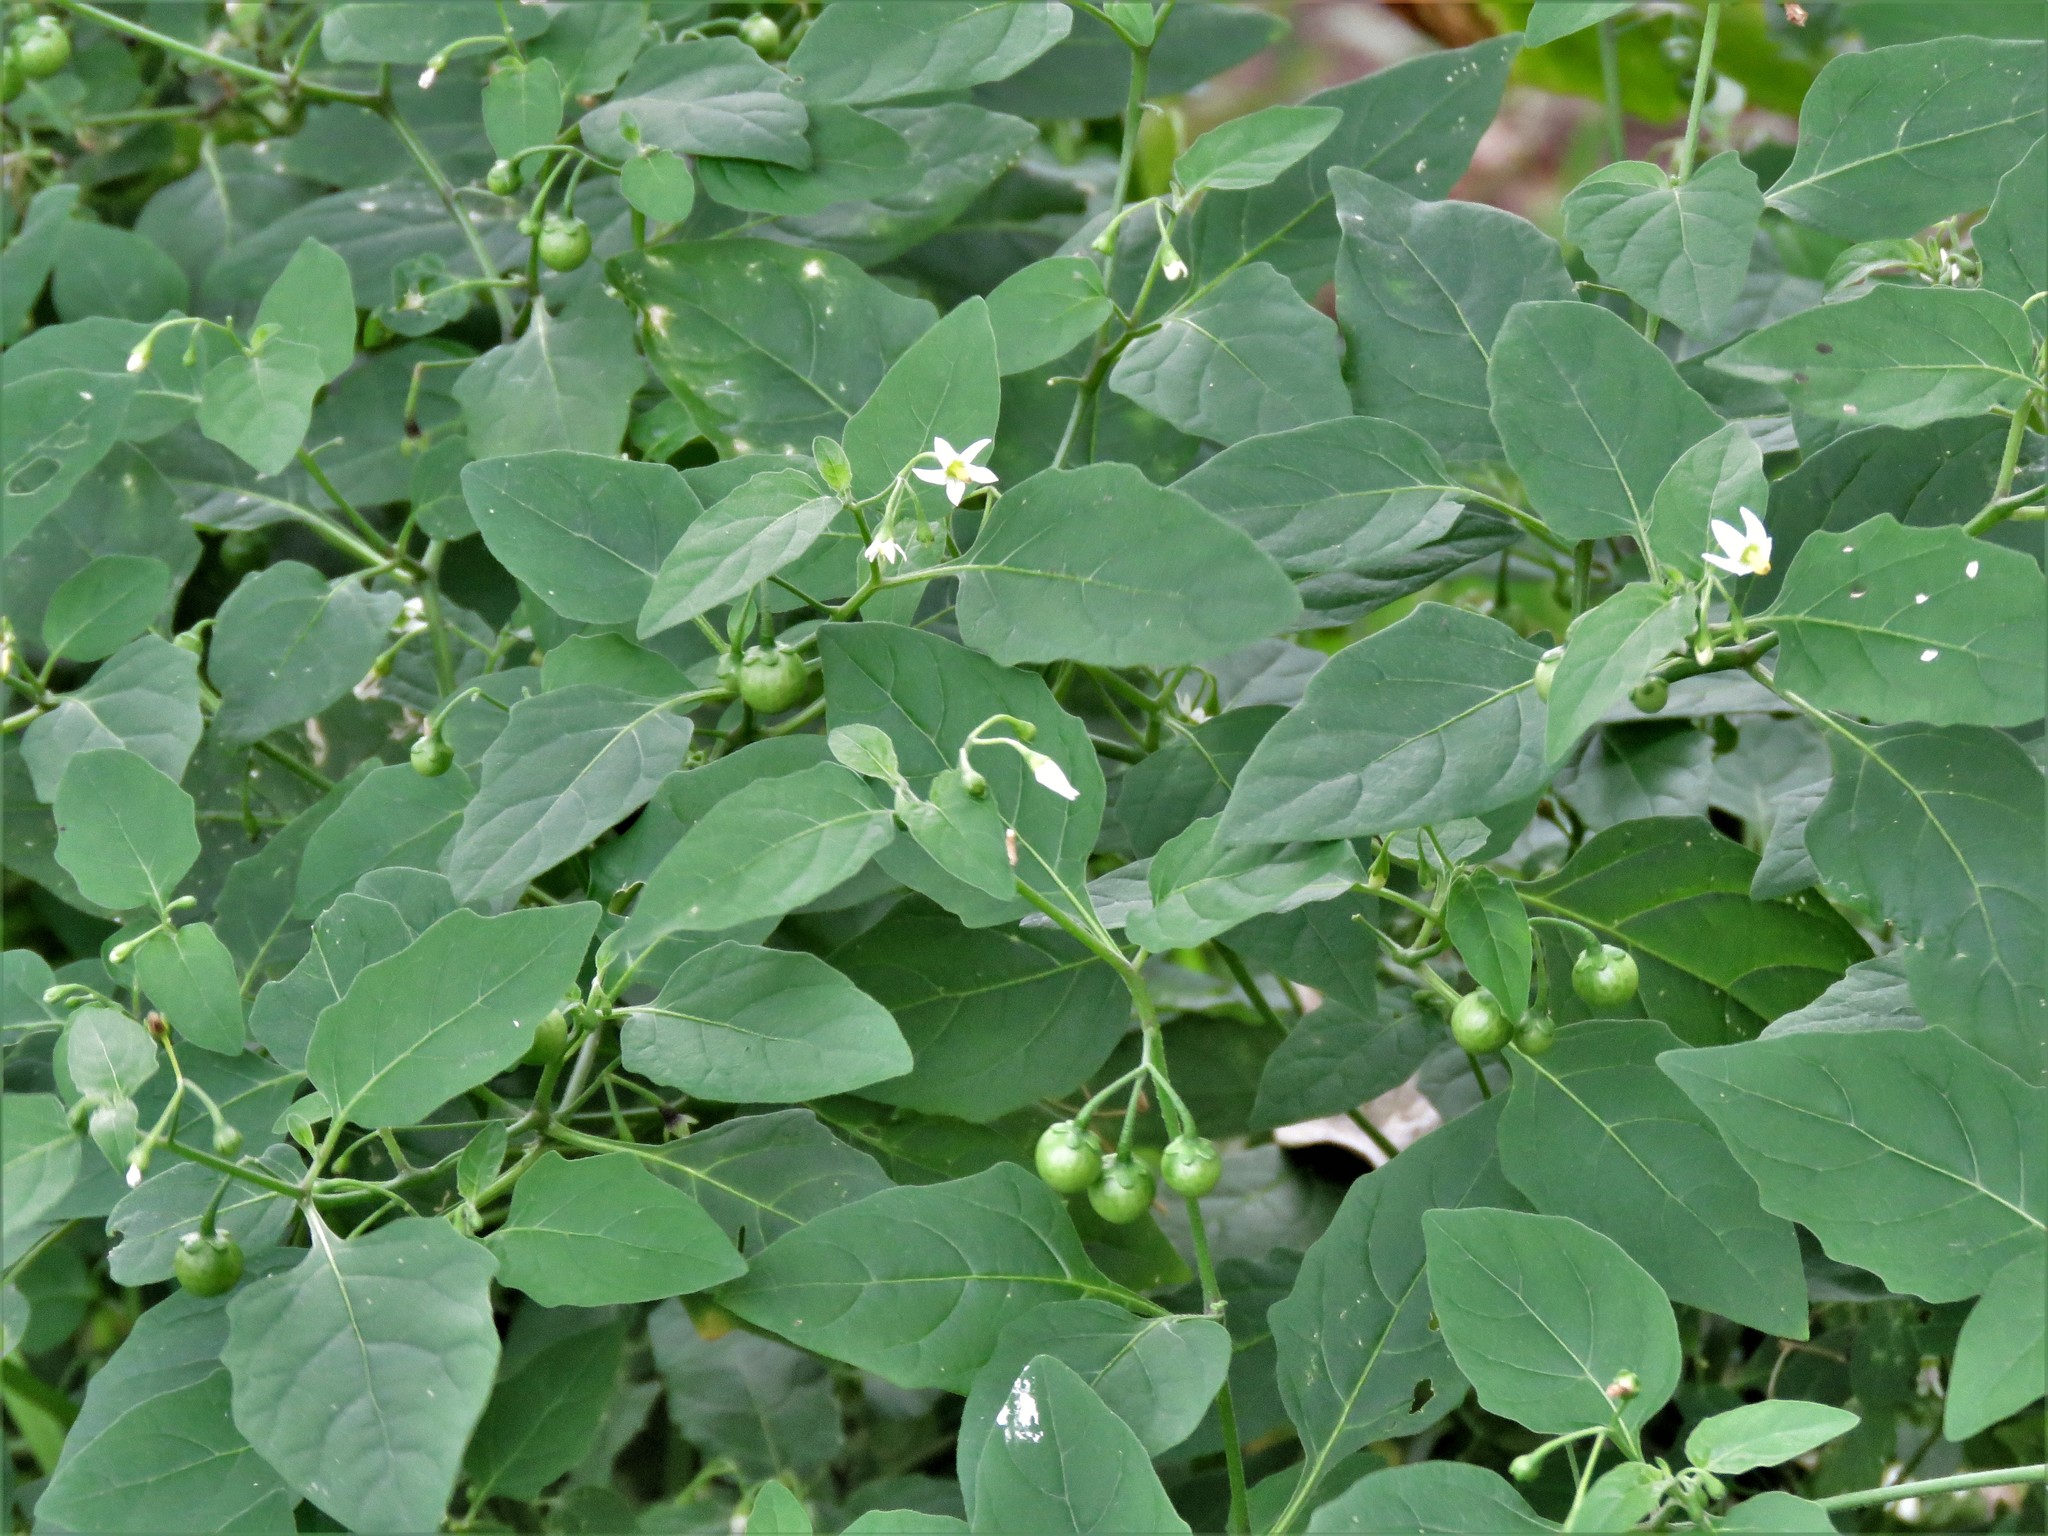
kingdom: Plantae
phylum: Tracheophyta
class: Magnoliopsida
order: Solanales
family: Solanaceae
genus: Solanum
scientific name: Solanum emulans
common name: Eastern black nightshade
